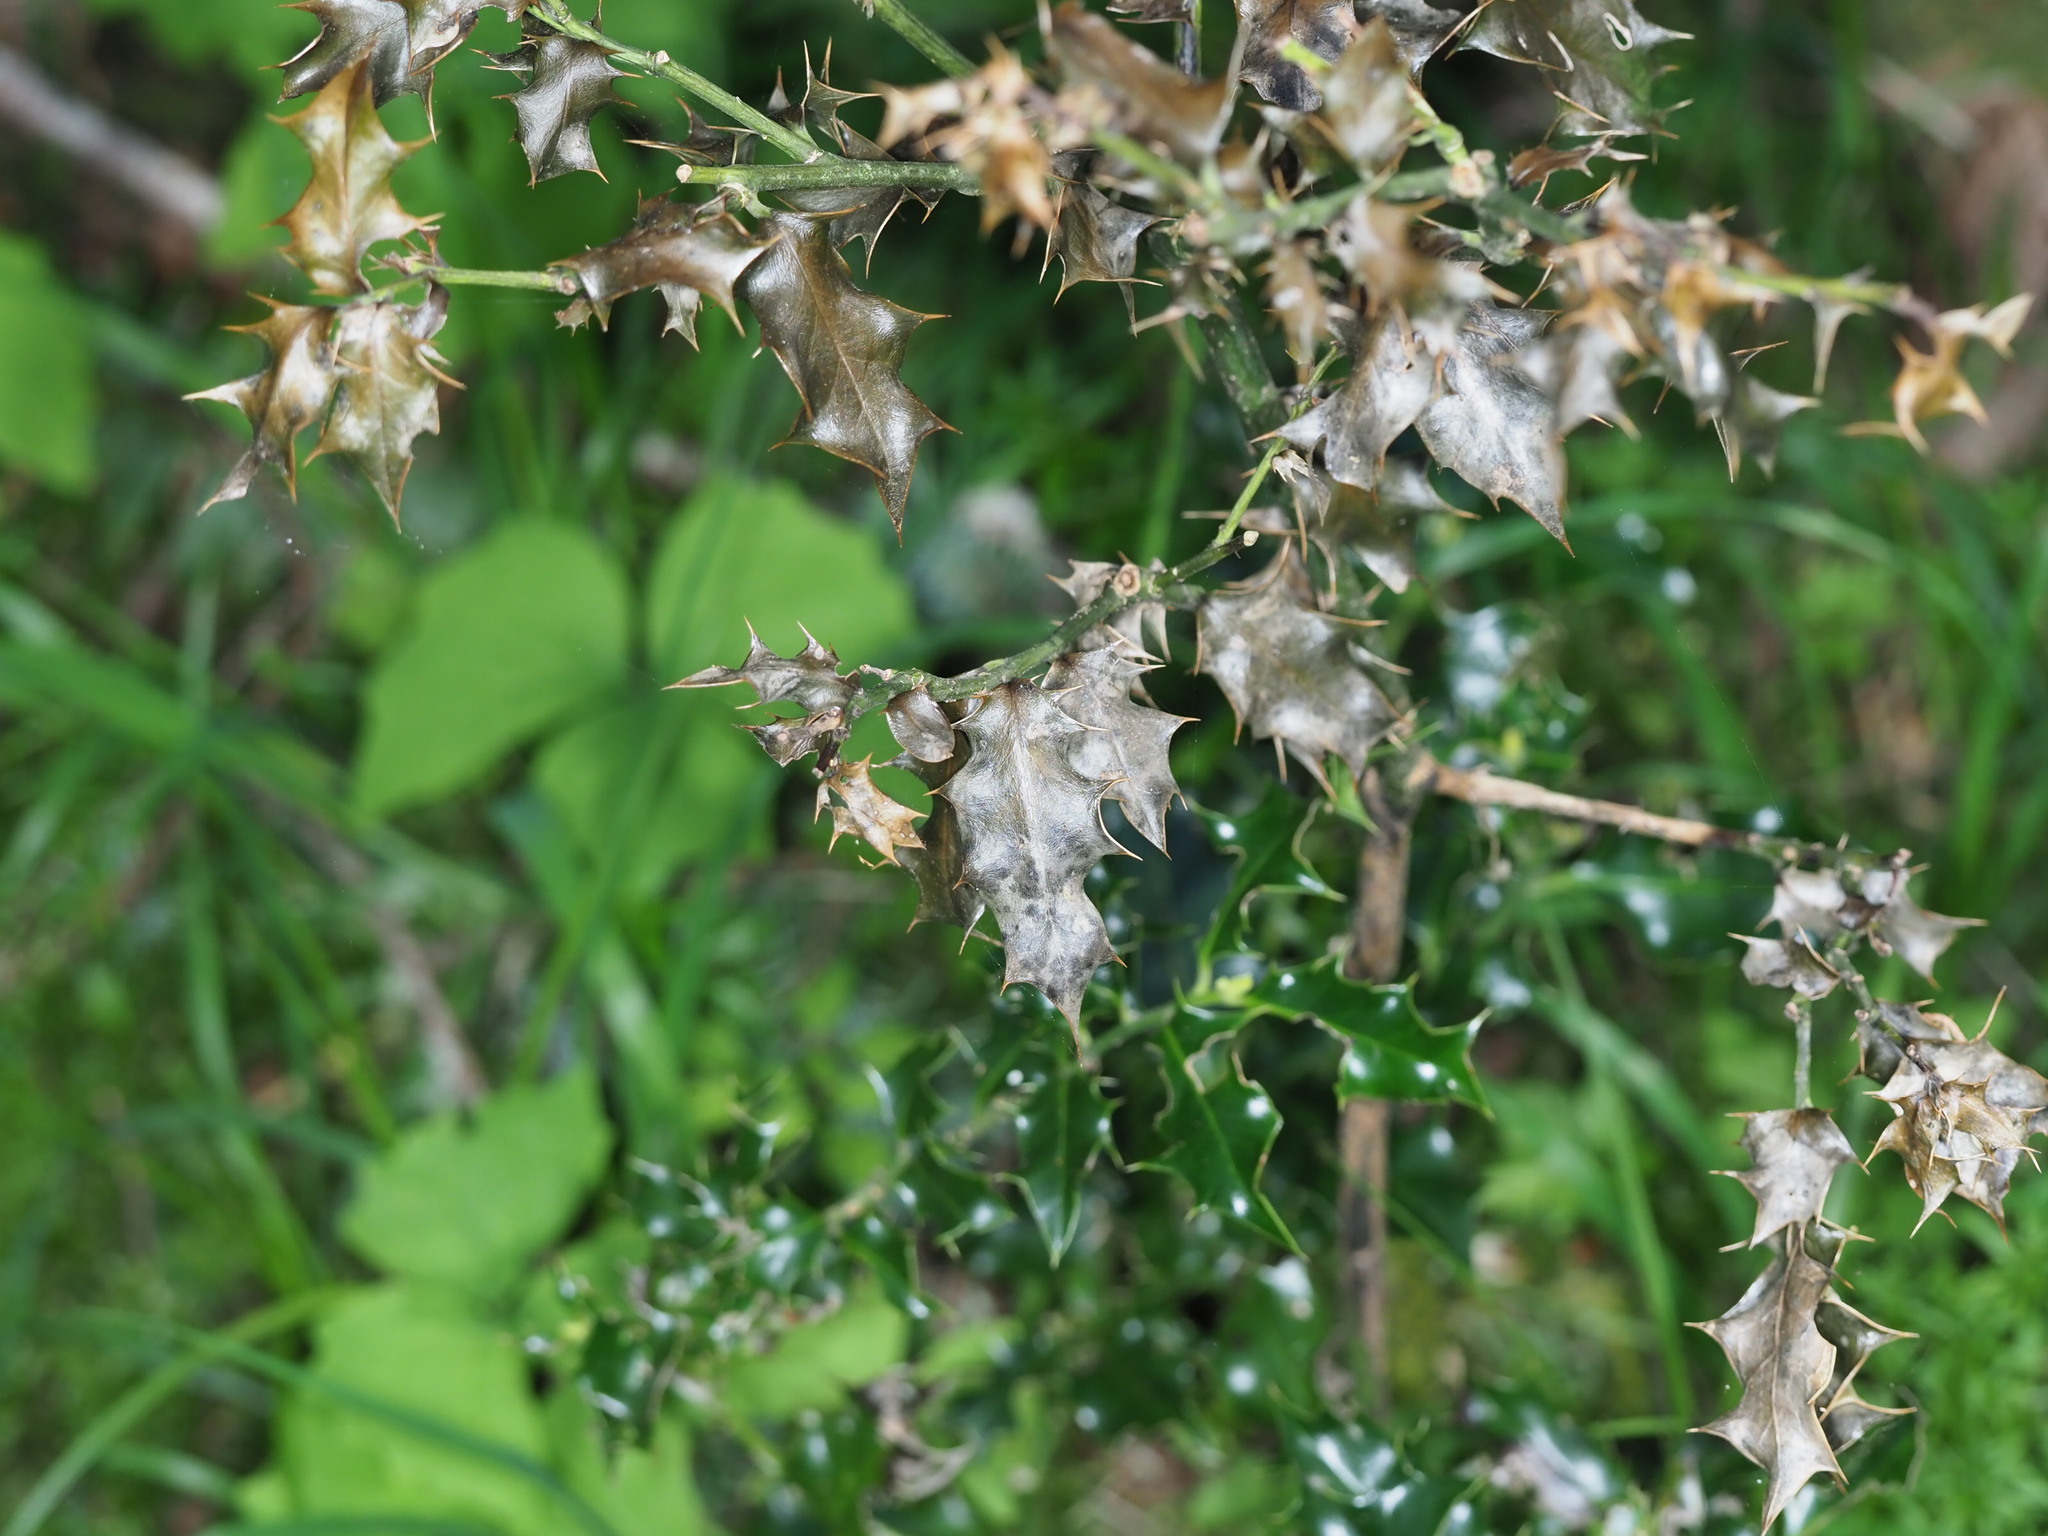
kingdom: Plantae
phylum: Tracheophyta
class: Magnoliopsida
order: Aquifoliales
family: Aquifoliaceae
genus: Ilex
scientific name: Ilex aquifolium
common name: English holly
